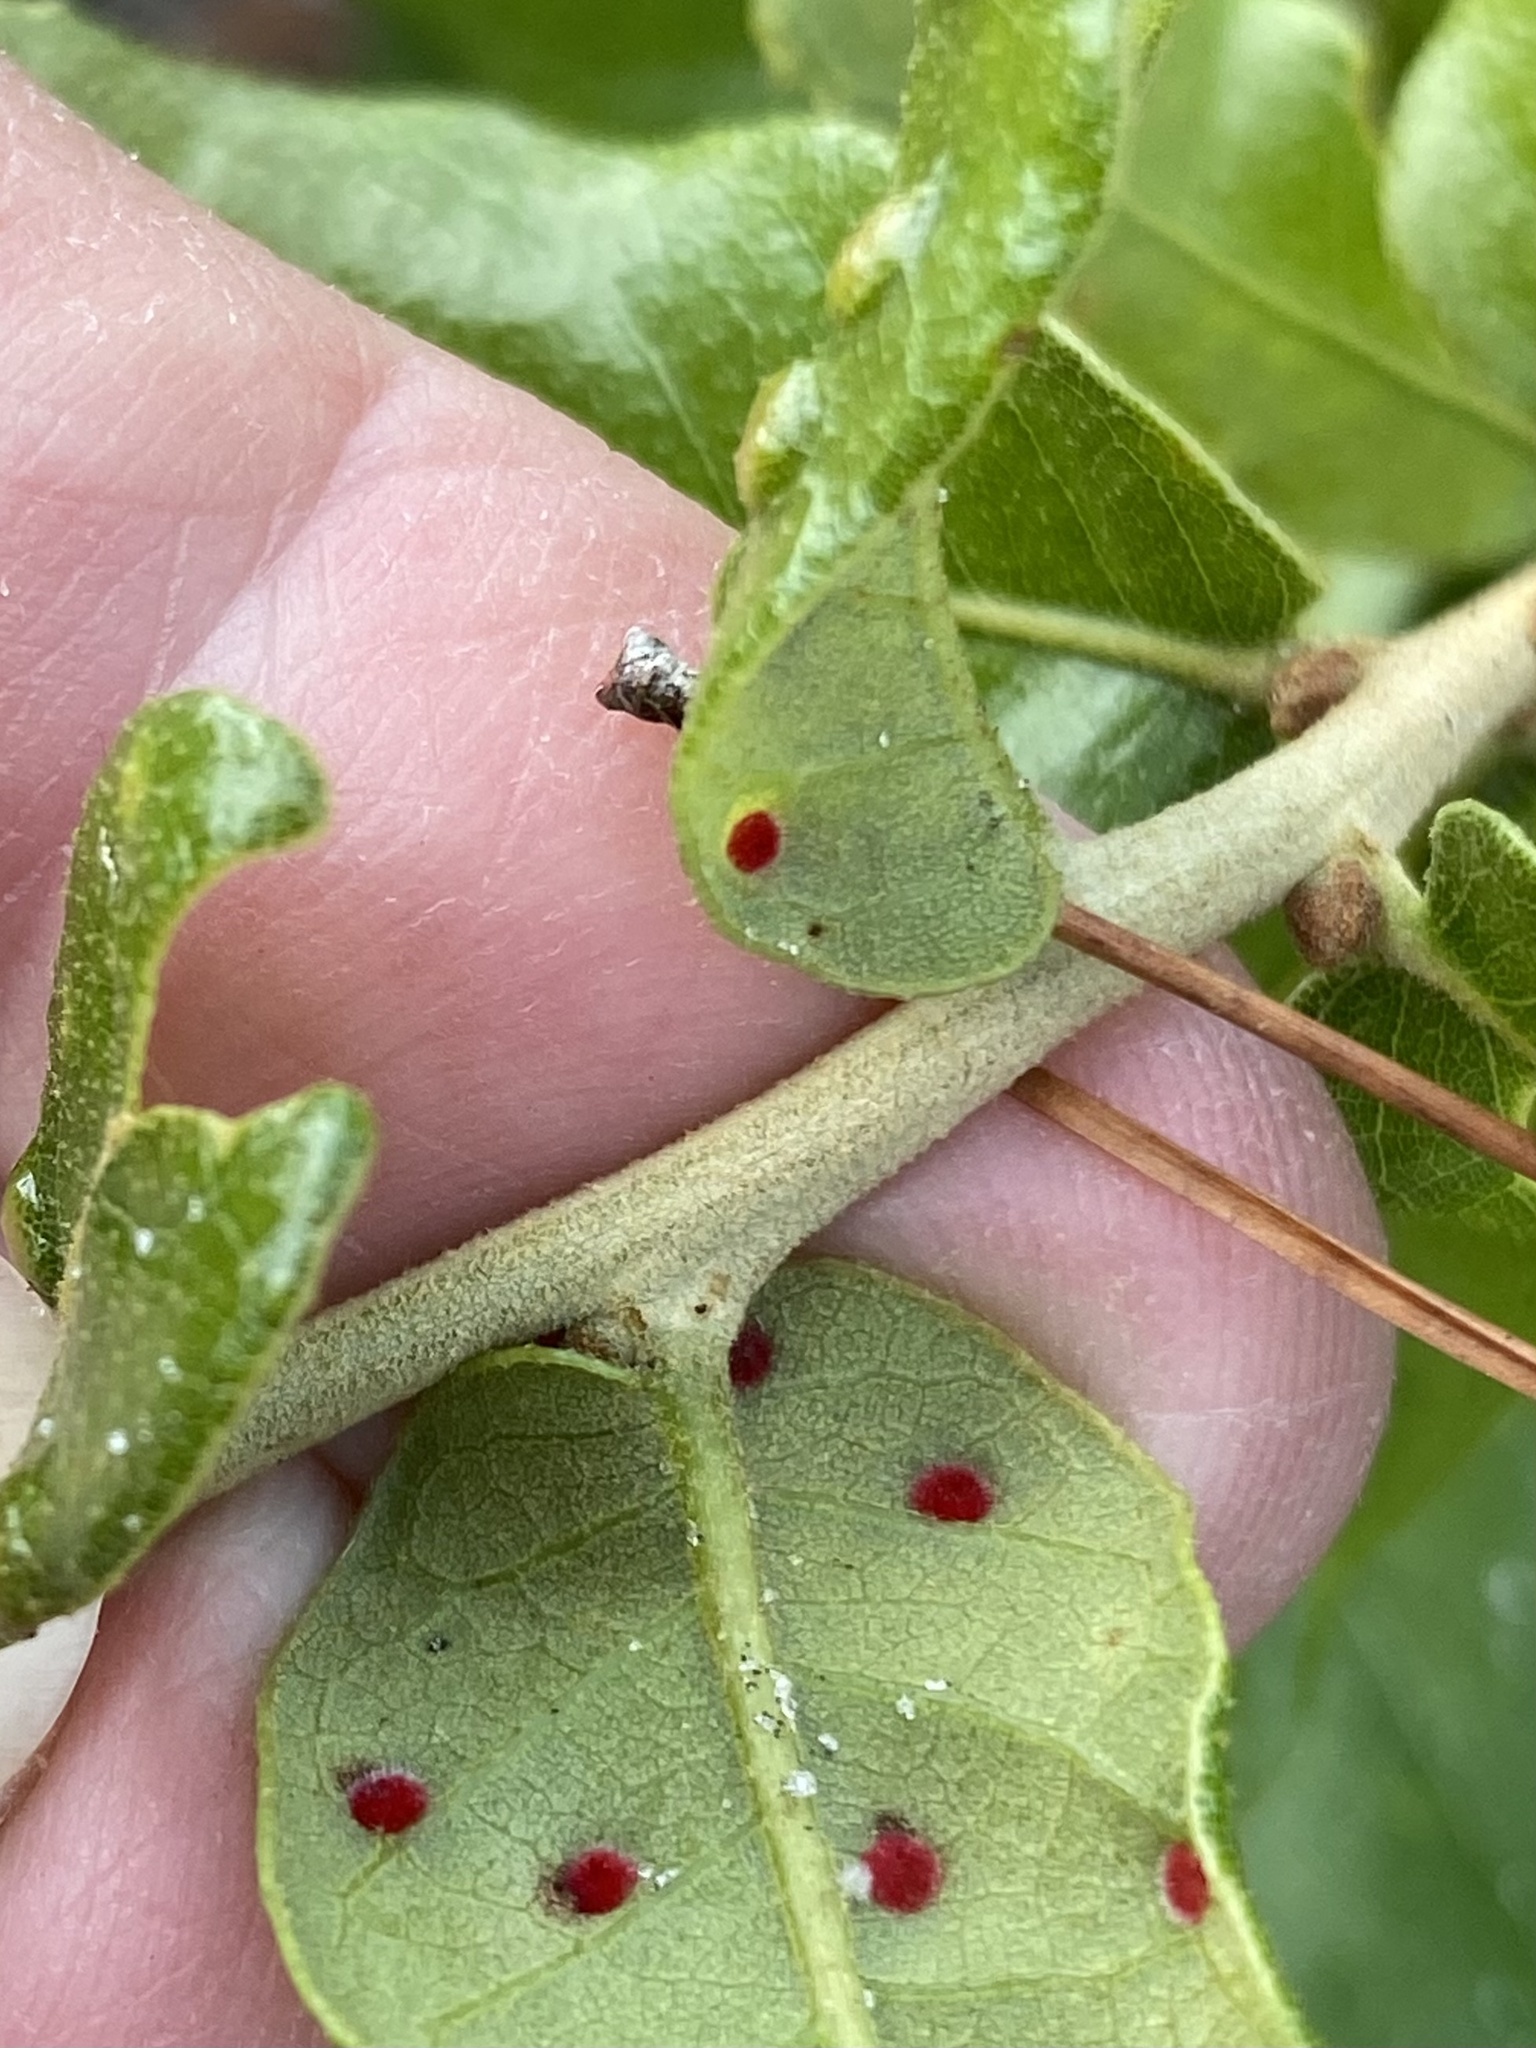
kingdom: Animalia
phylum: Arthropoda
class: Insecta
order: Hymenoptera
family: Cynipidae
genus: Neuroterus
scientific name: Neuroterus quercusverrucarum
